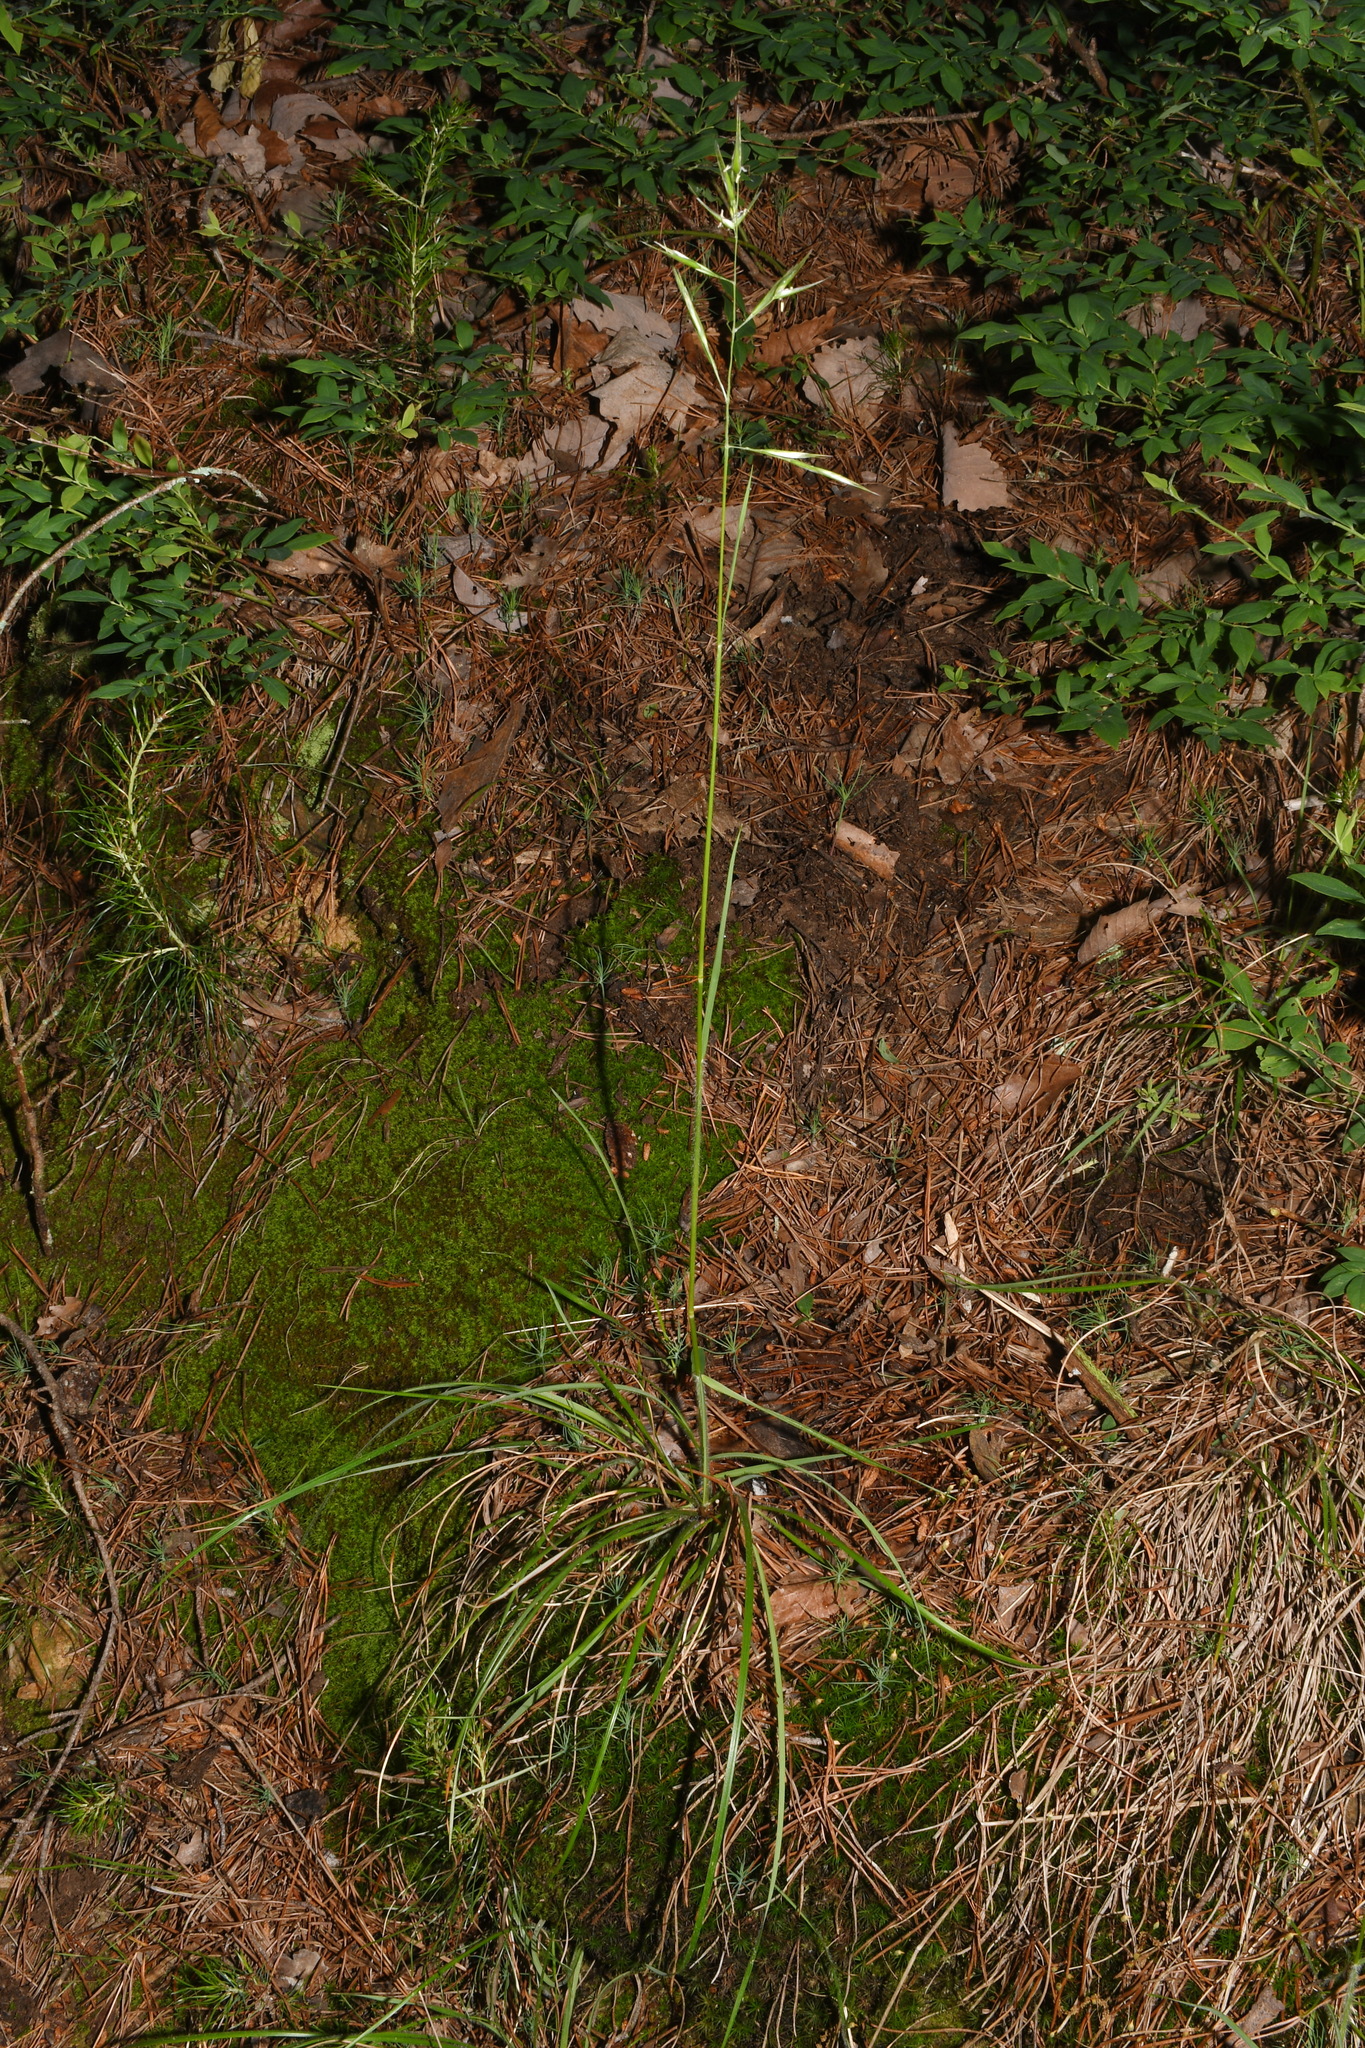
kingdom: Plantae
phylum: Tracheophyta
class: Liliopsida
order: Poales
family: Poaceae
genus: Danthonia
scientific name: Danthonia spicata
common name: Common wild oatgrass
